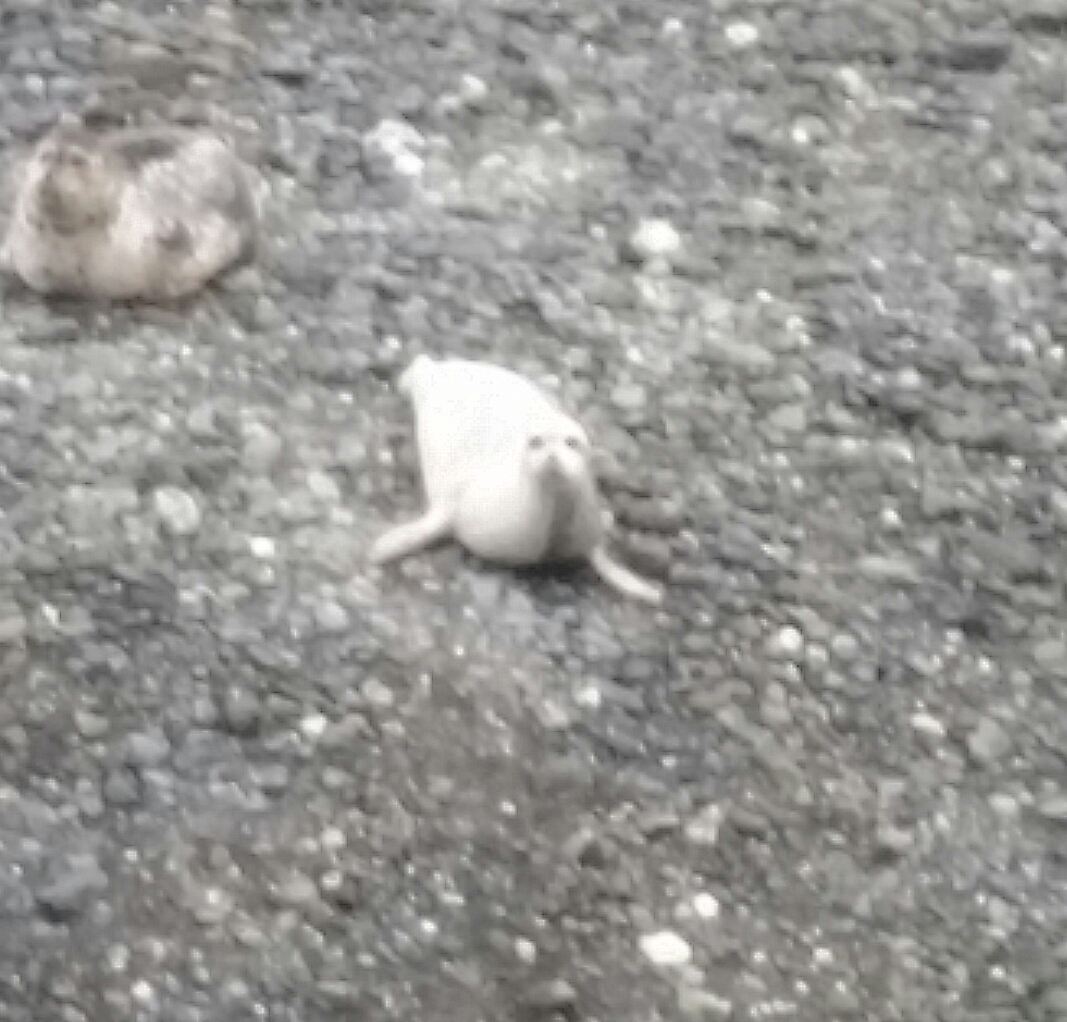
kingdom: Animalia
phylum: Chordata
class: Mammalia
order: Carnivora
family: Phocidae
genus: Phoca
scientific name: Phoca vitulina
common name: Harbor seal
